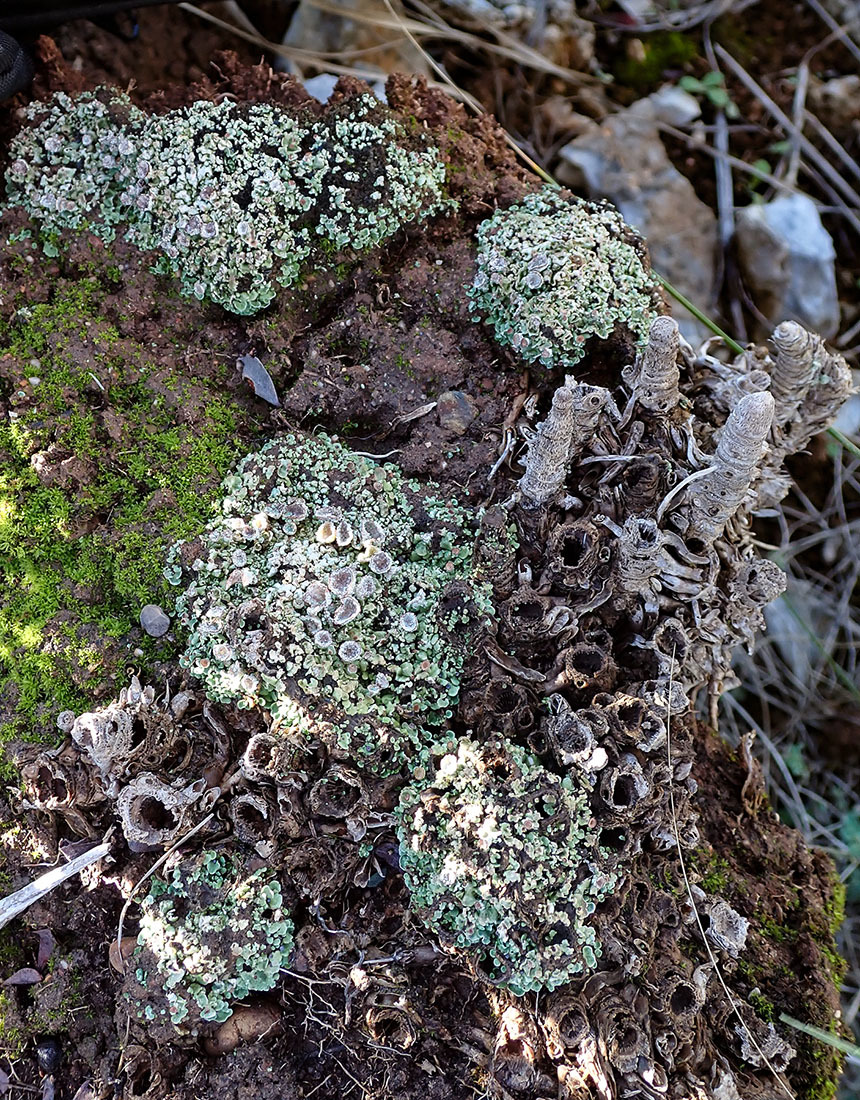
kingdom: Fungi
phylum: Ascomycota
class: Lecanoromycetes
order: Lecanorales
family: Cladoniaceae
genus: Cladonia
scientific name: Cladonia pyxidata
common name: Pebbled pixie cup
